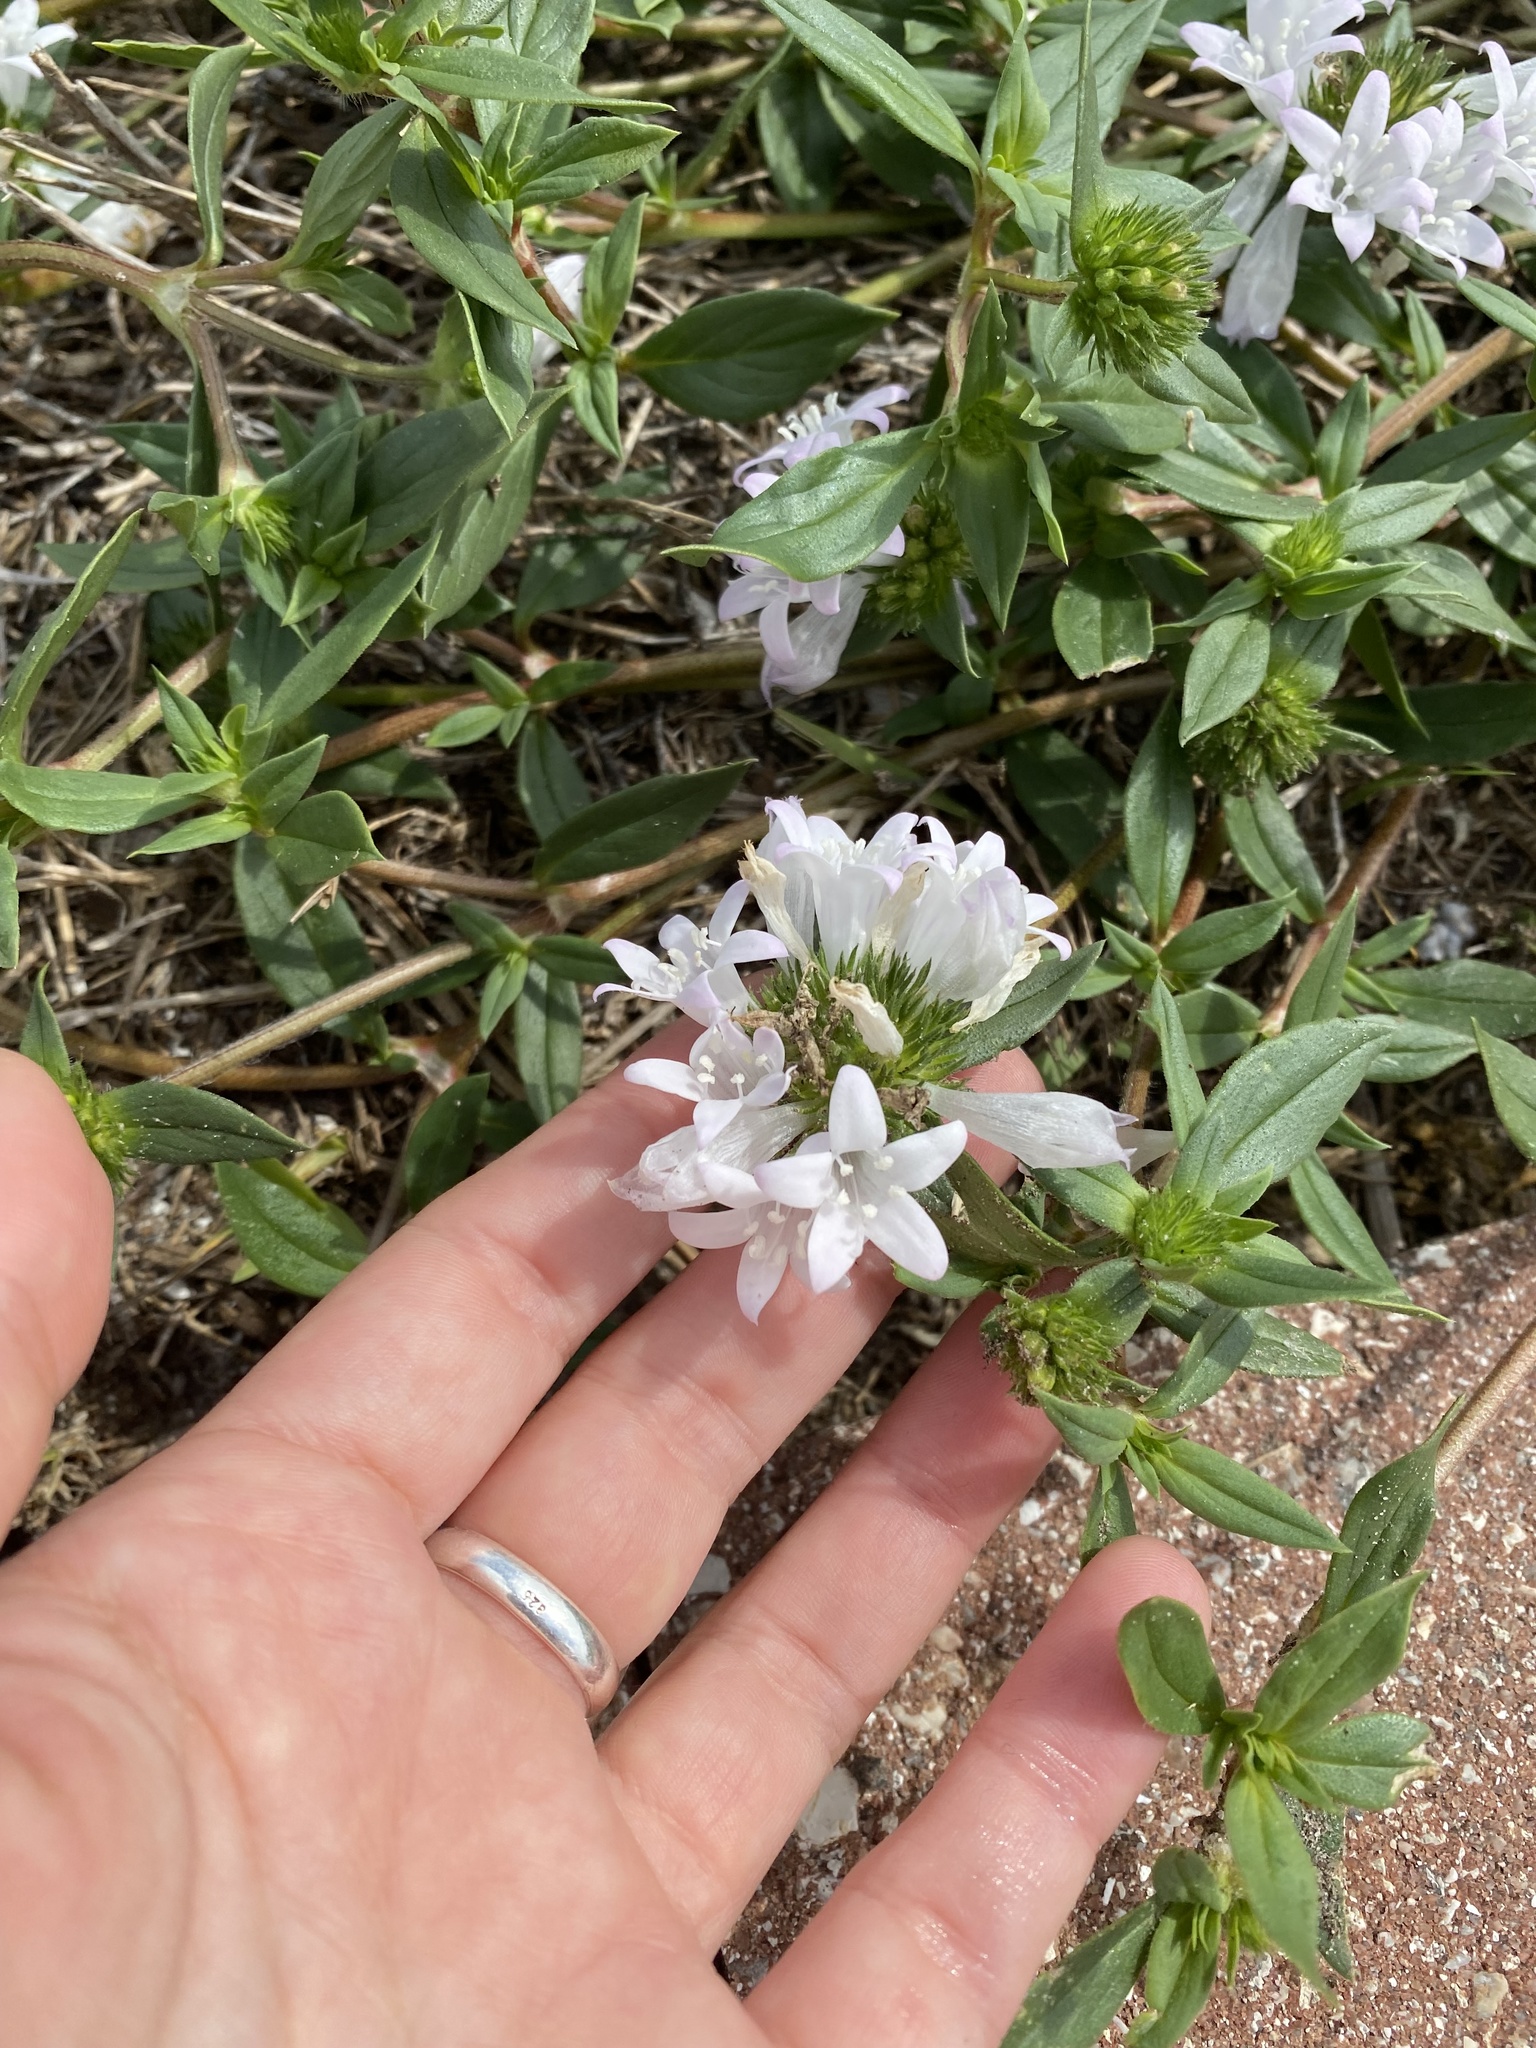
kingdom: Plantae
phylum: Tracheophyta
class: Magnoliopsida
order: Gentianales
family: Rubiaceae
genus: Richardia
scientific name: Richardia grandiflora
